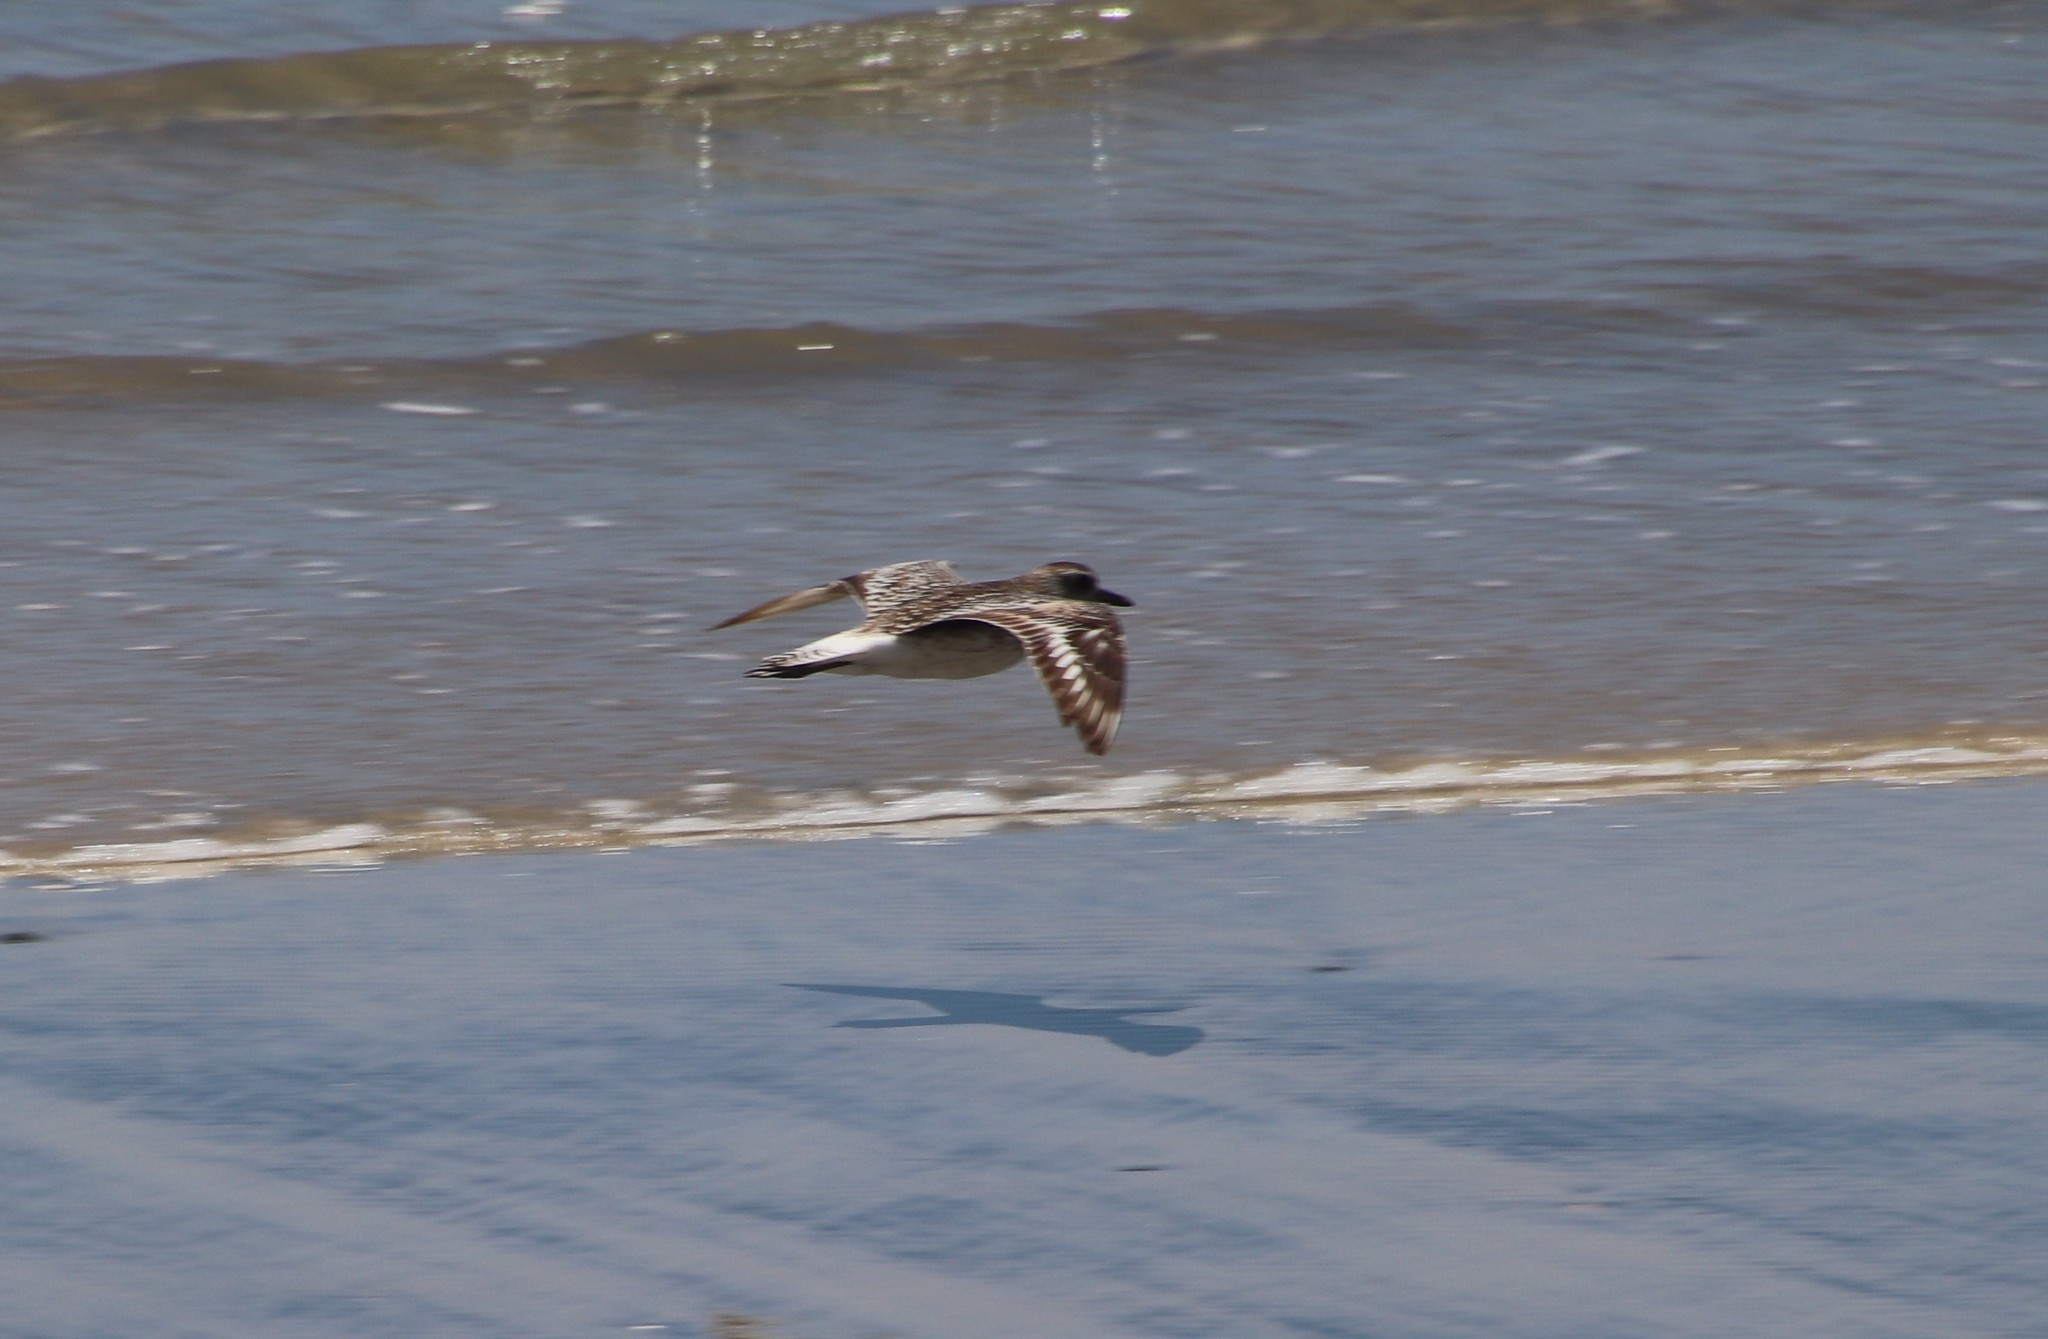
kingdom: Animalia
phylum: Chordata
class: Aves
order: Charadriiformes
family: Charadriidae
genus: Pluvialis
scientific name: Pluvialis squatarola
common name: Grey plover
